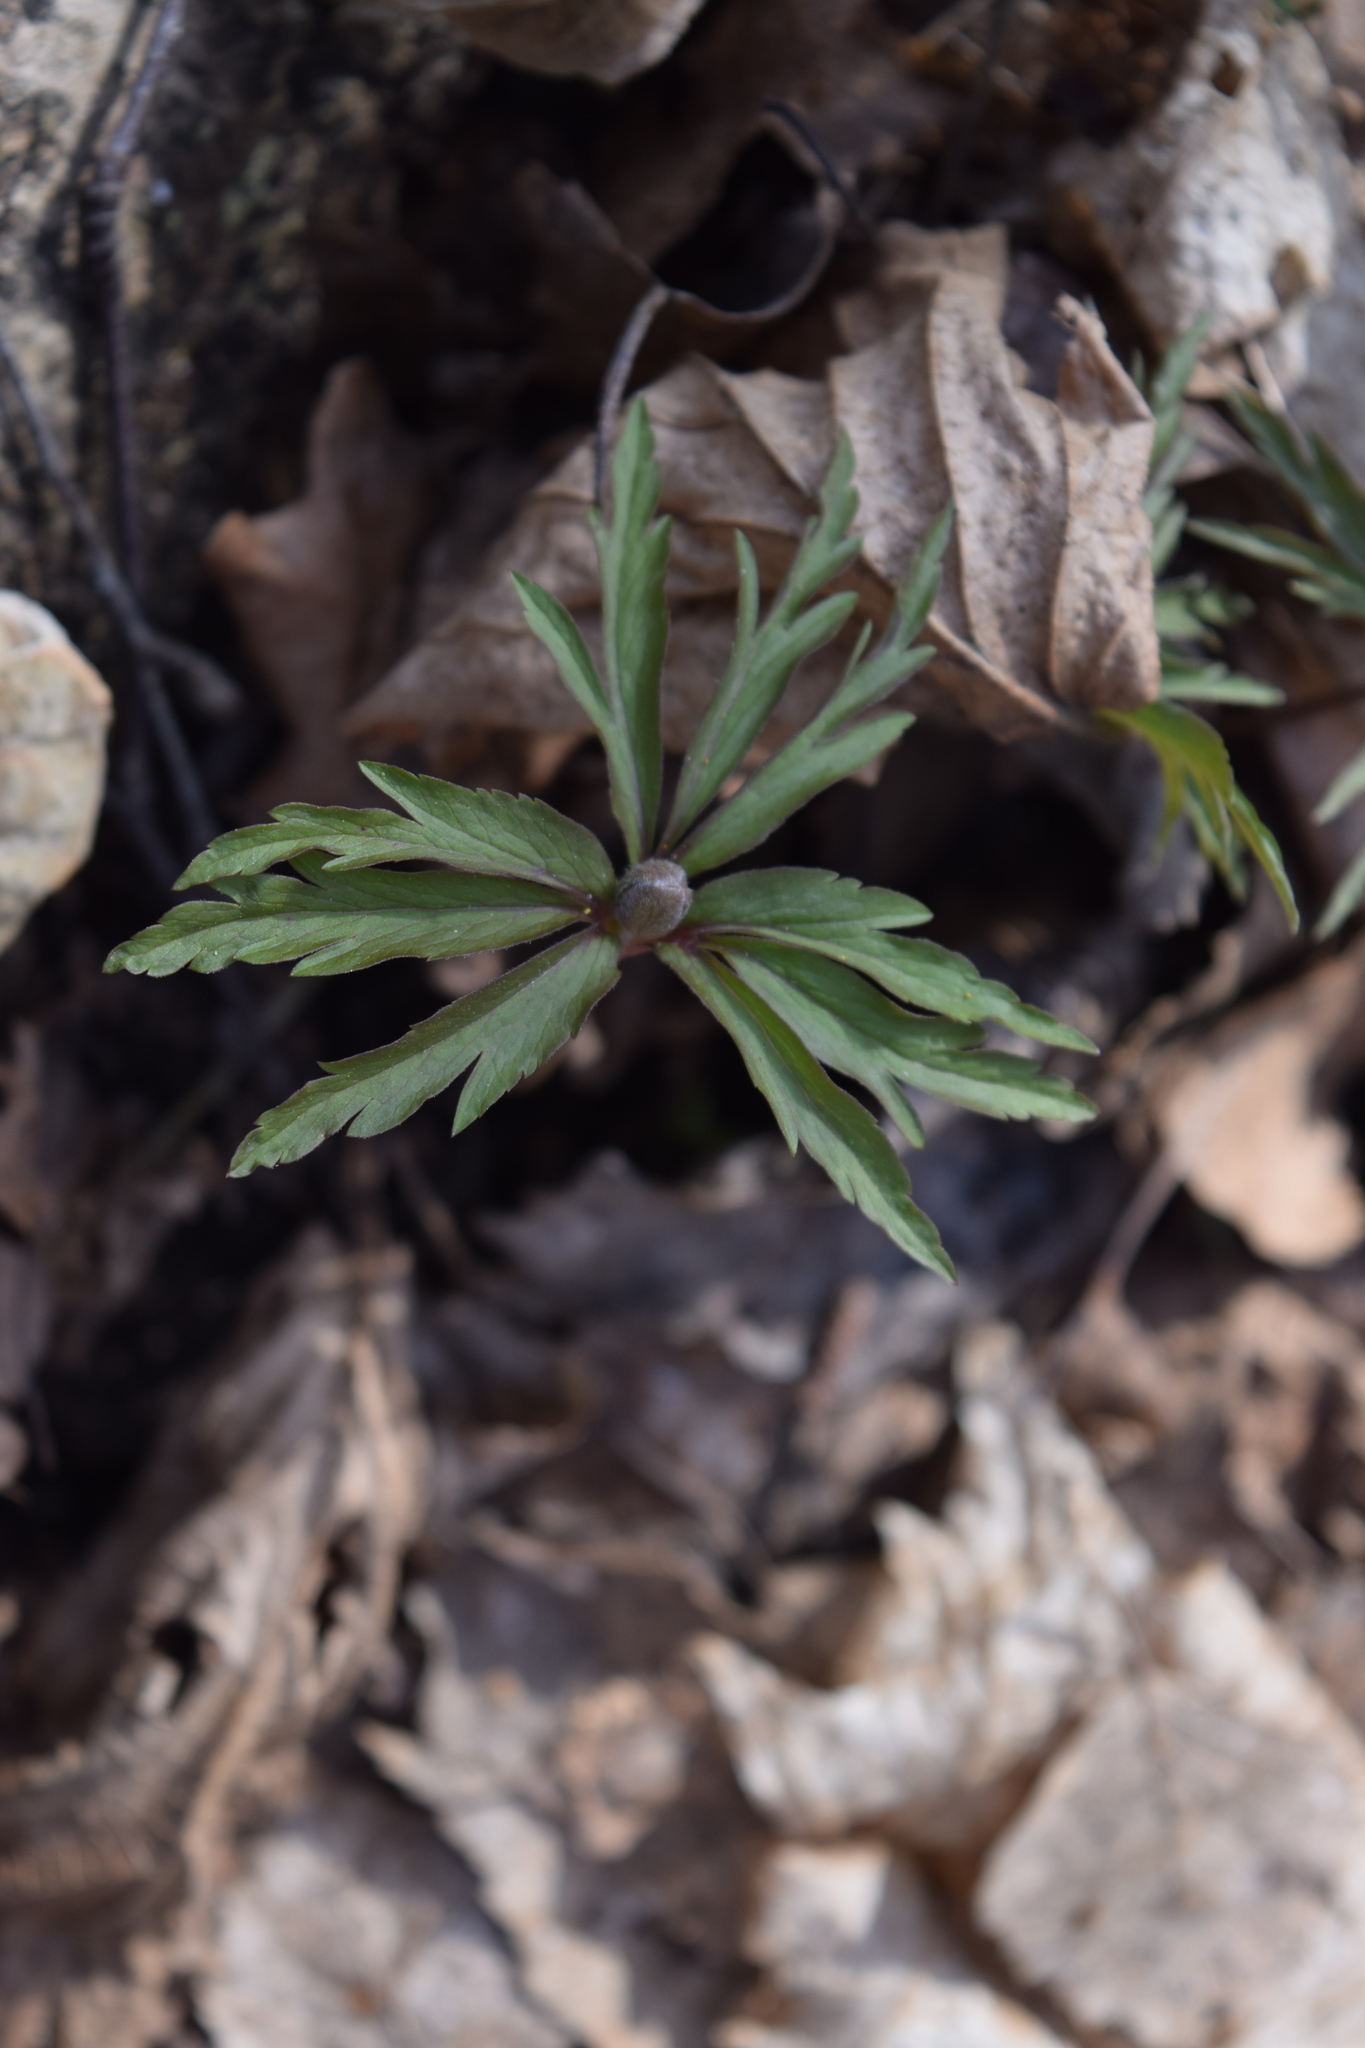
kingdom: Plantae
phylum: Tracheophyta
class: Magnoliopsida
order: Ranunculales
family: Ranunculaceae
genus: Anemone
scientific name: Anemone ranunculoides
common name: Yellow anemone
